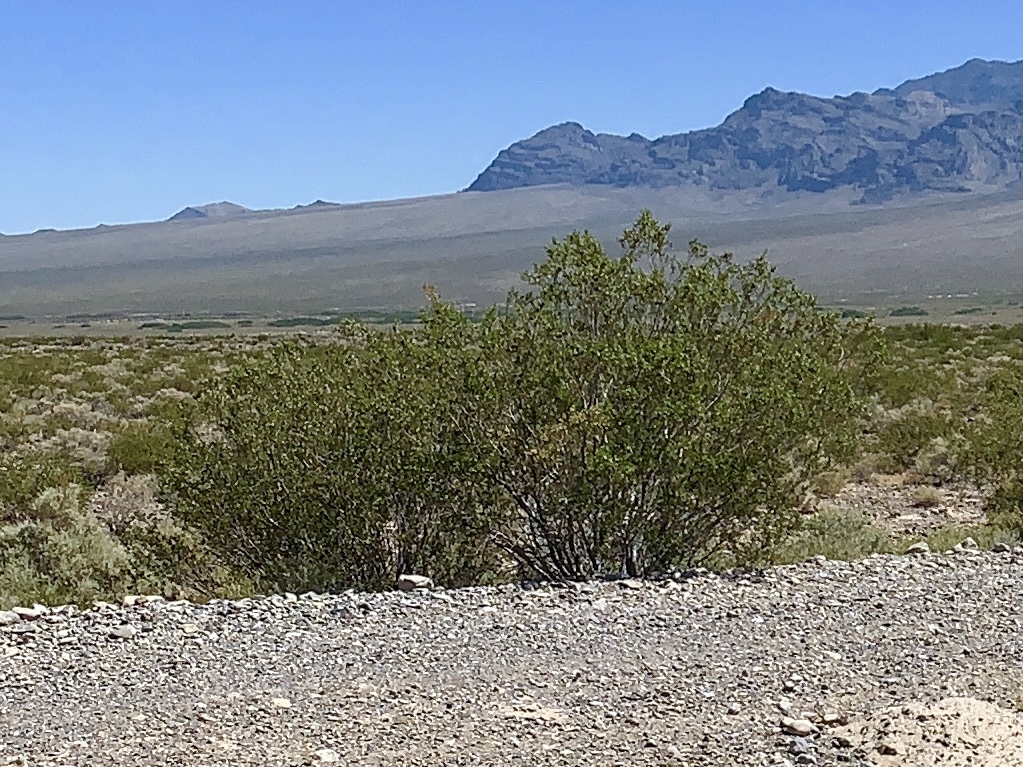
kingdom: Plantae
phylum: Tracheophyta
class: Magnoliopsida
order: Zygophyllales
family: Zygophyllaceae
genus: Larrea
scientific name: Larrea tridentata
